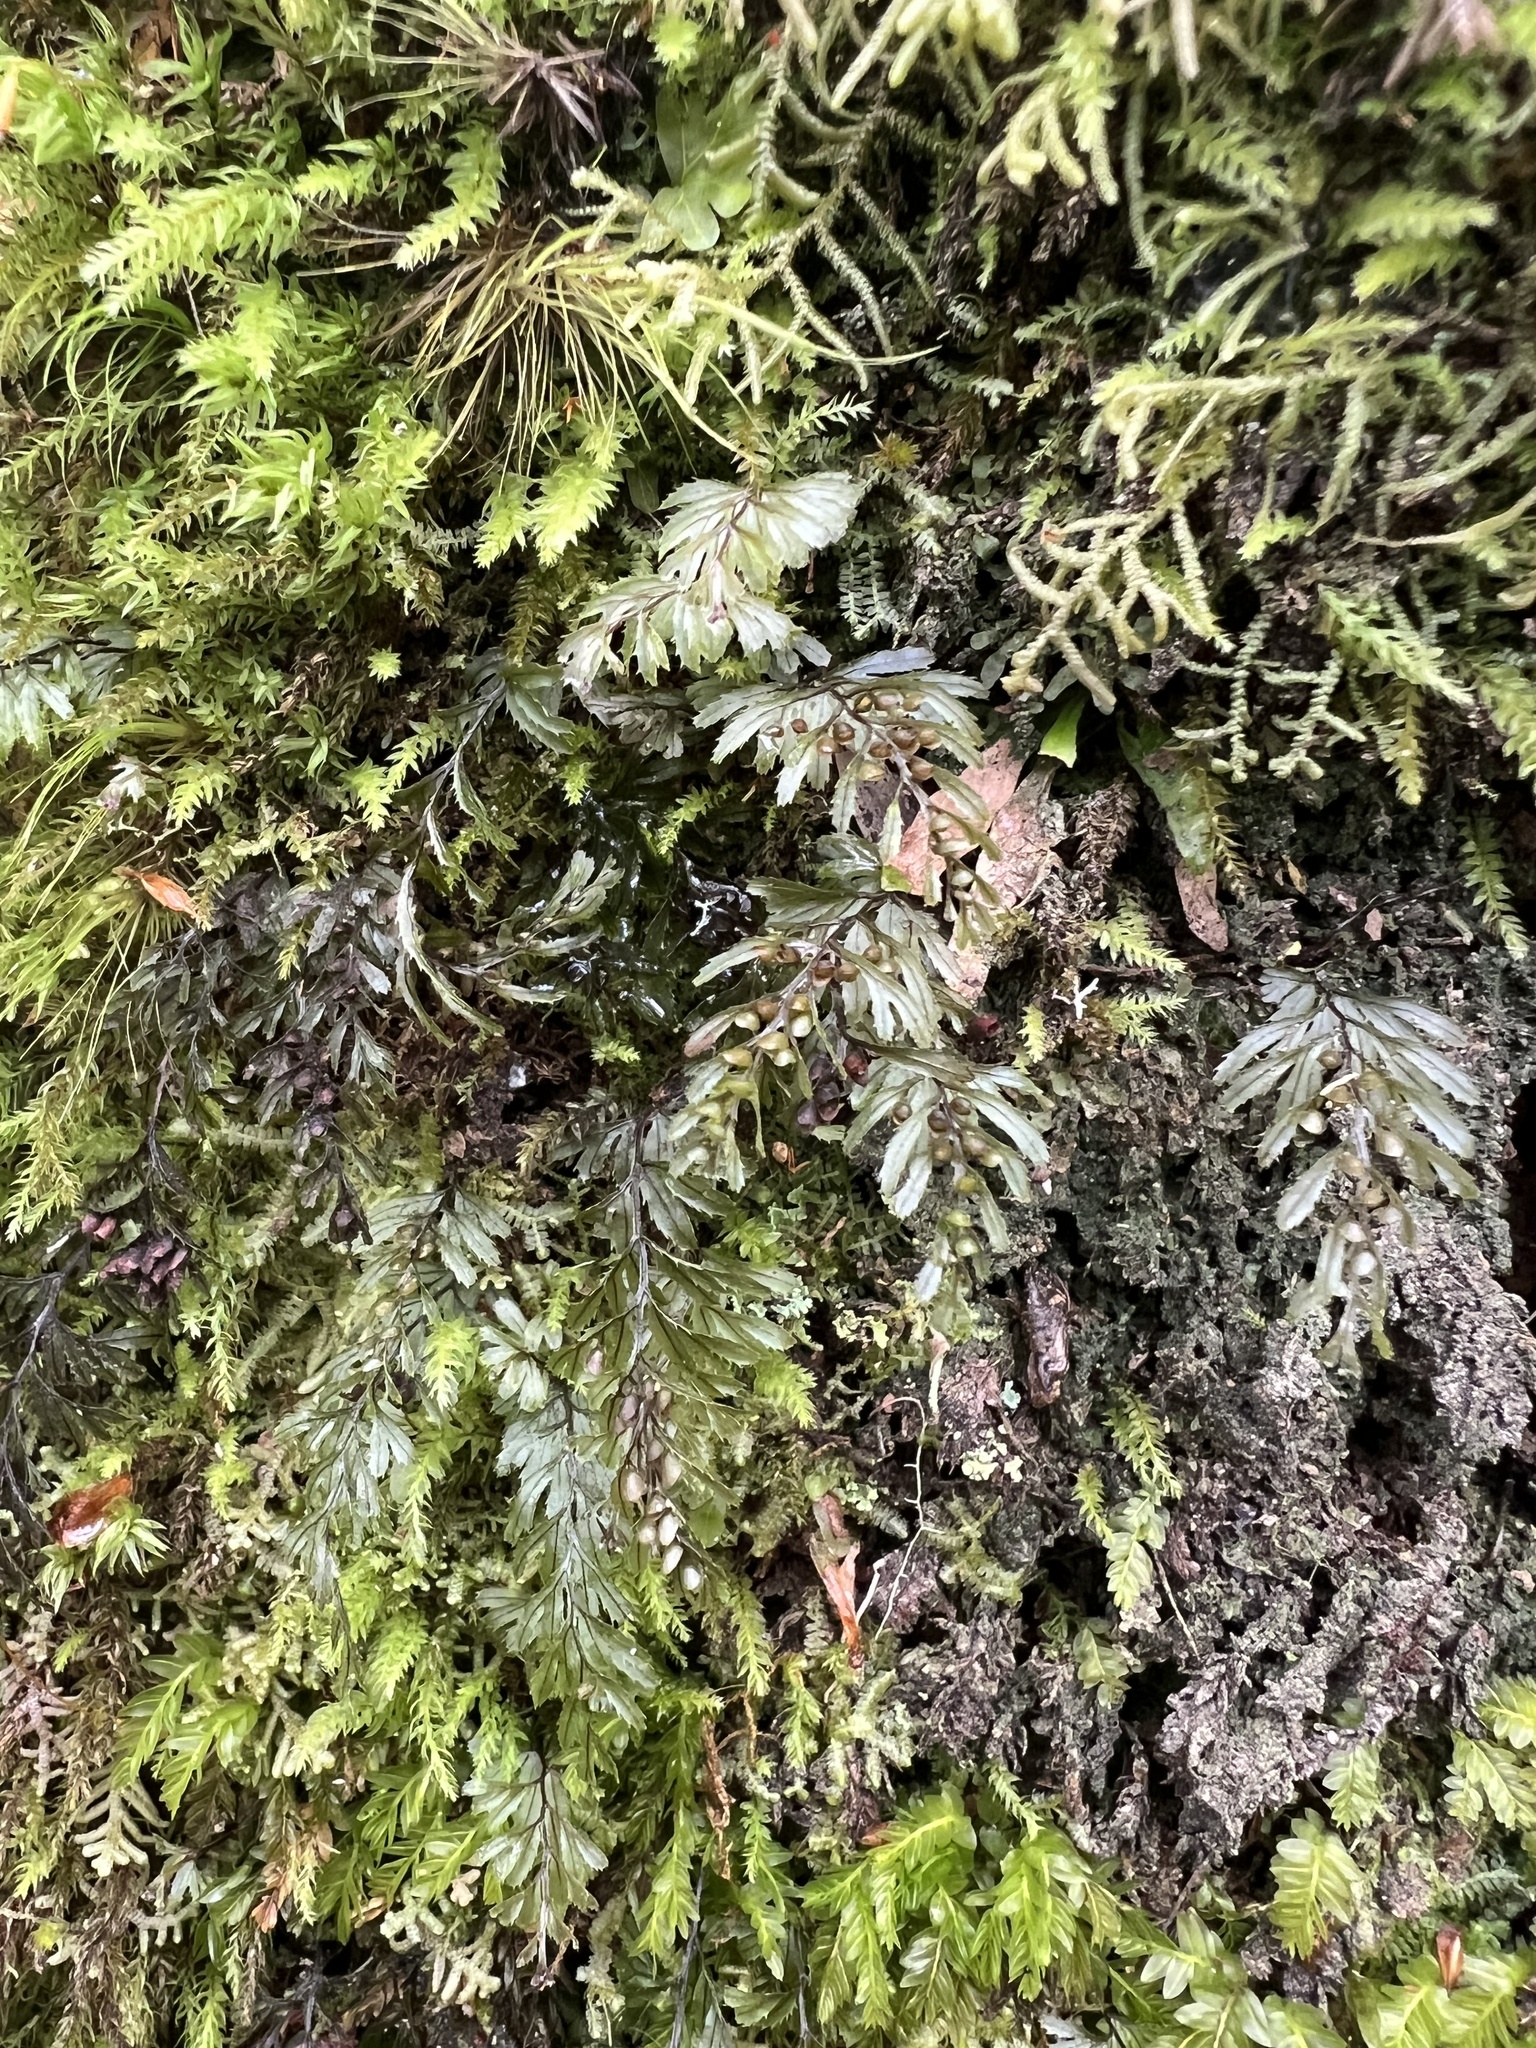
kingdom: Plantae
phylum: Tracheophyta
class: Polypodiopsida
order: Hymenophyllales
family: Hymenophyllaceae
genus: Hymenophyllum
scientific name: Hymenophyllum peltatum
